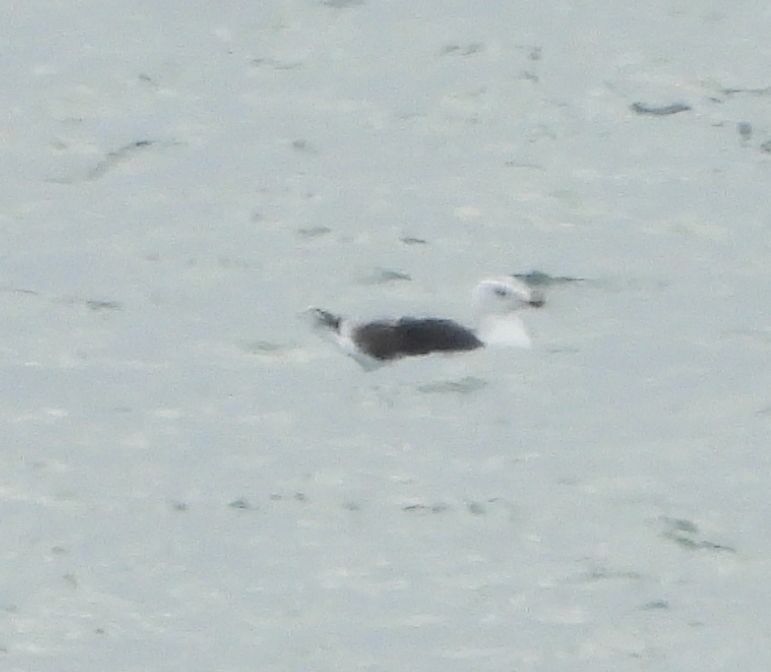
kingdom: Animalia
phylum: Chordata
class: Aves
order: Charadriiformes
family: Laridae
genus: Larus
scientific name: Larus marinus
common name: Great black-backed gull
